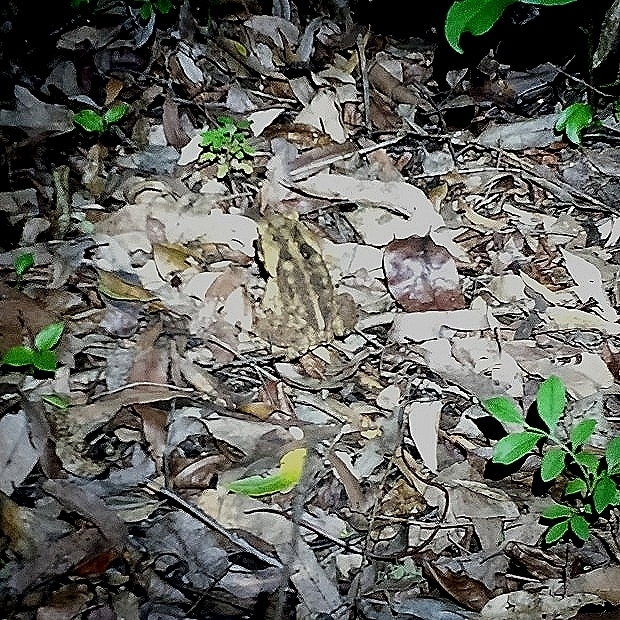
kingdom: Animalia
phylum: Chordata
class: Amphibia
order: Anura
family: Bufonidae
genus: Rhinella
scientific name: Rhinella marina
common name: Cane toad
